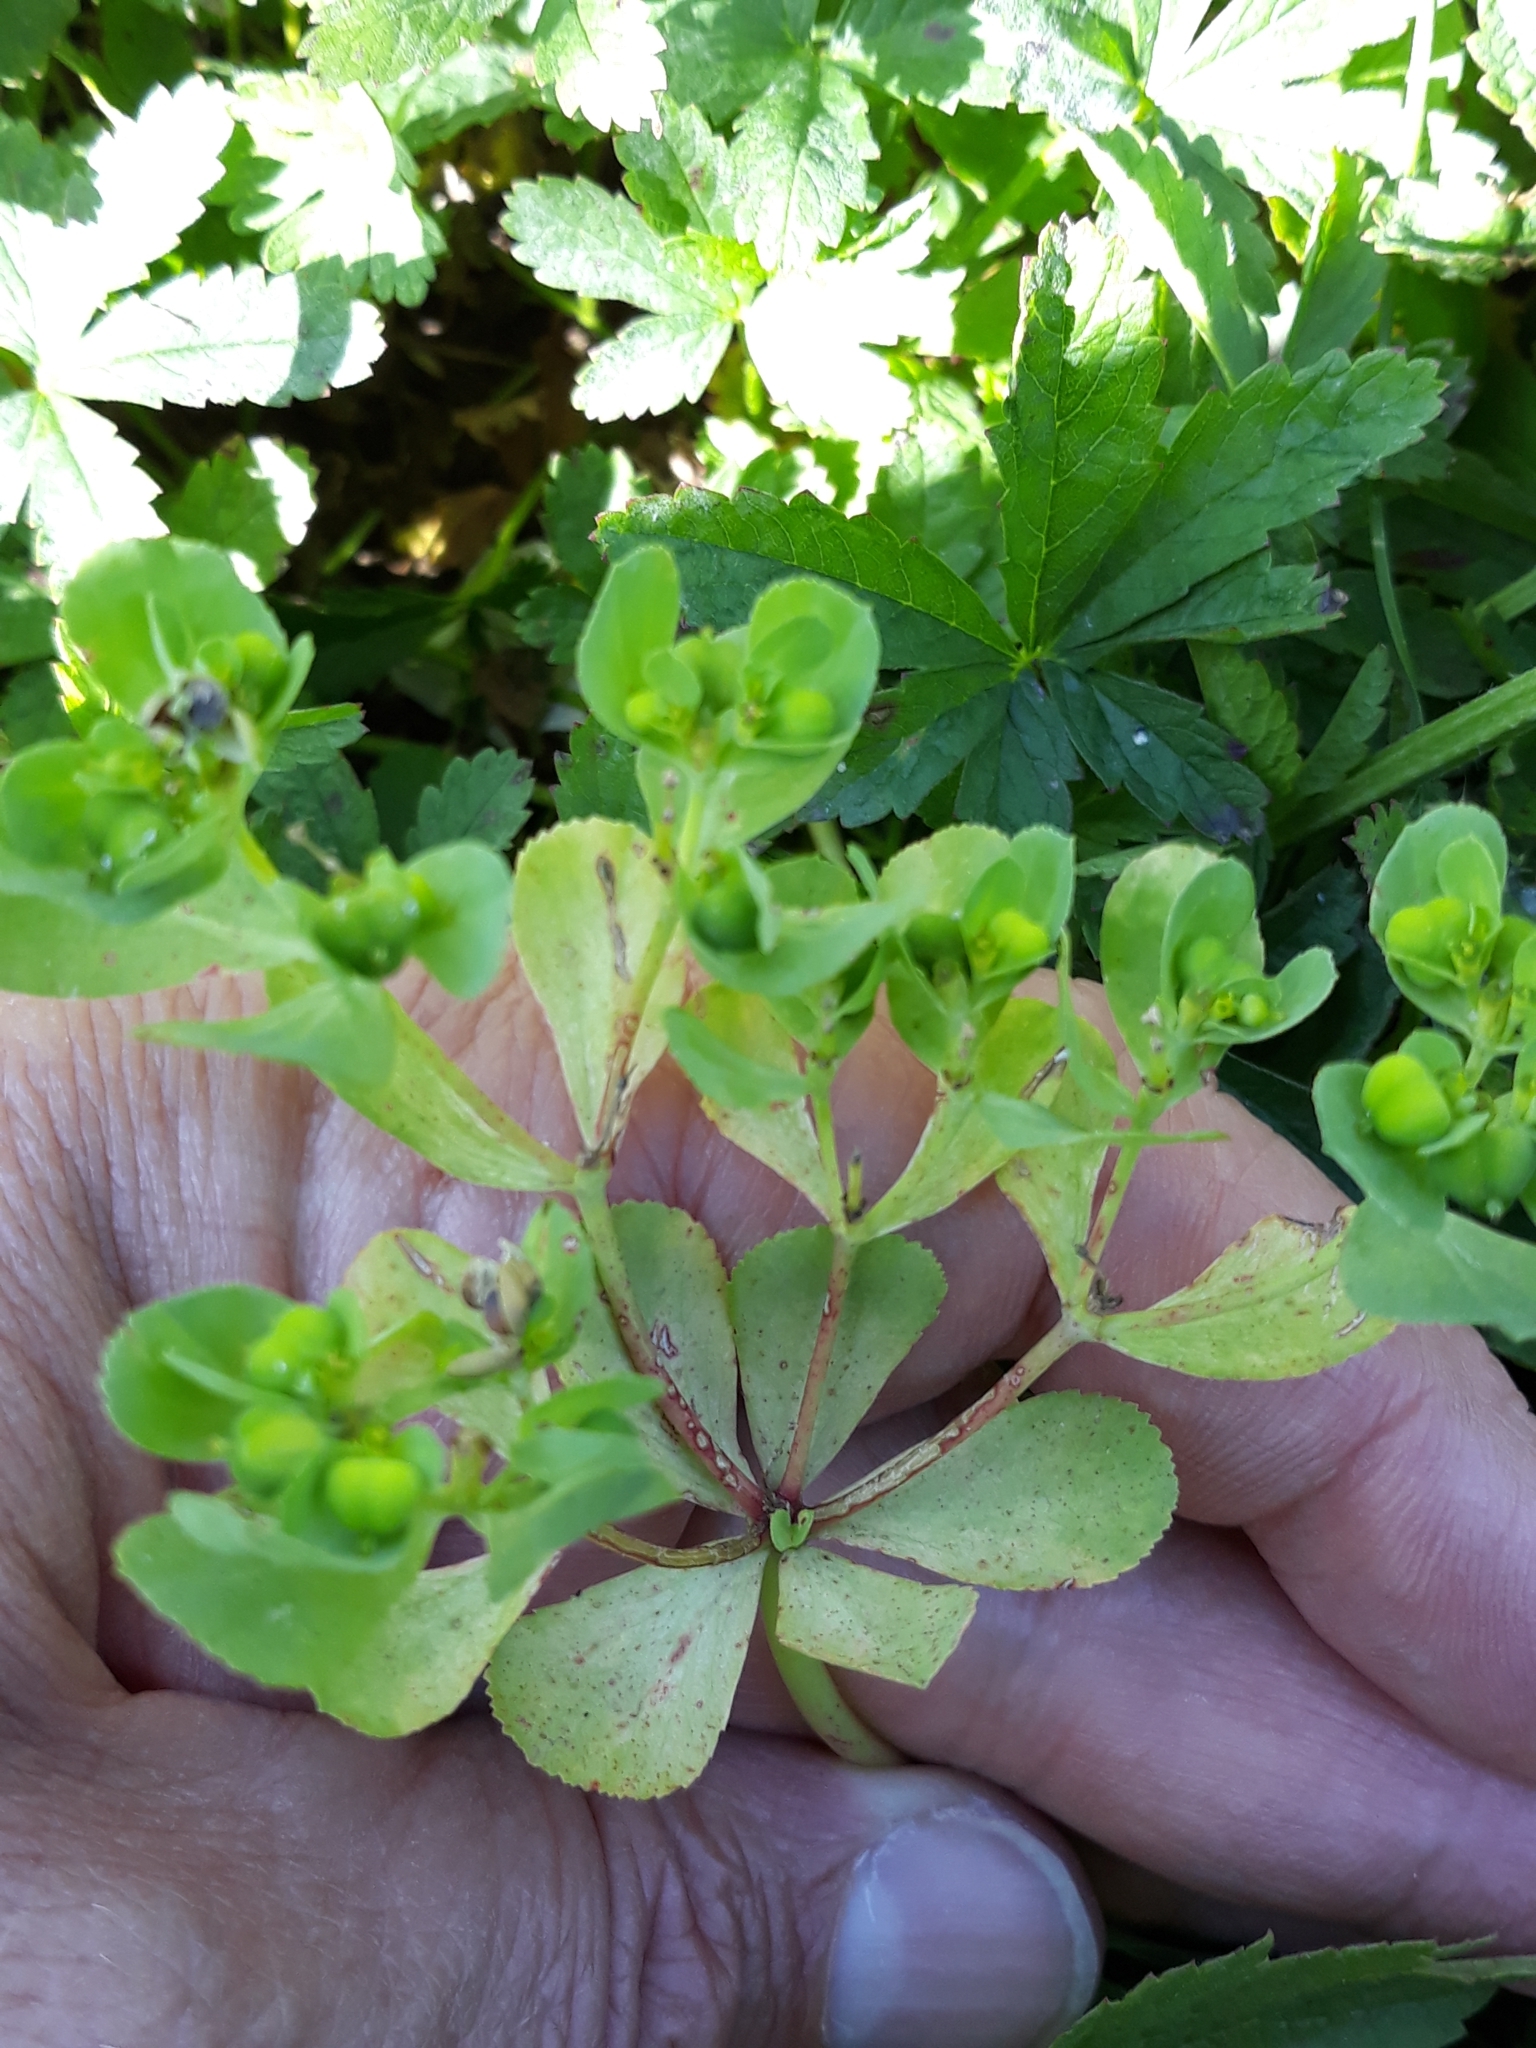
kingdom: Plantae
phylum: Tracheophyta
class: Magnoliopsida
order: Malpighiales
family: Euphorbiaceae
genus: Euphorbia
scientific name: Euphorbia helioscopia
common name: Sun spurge
